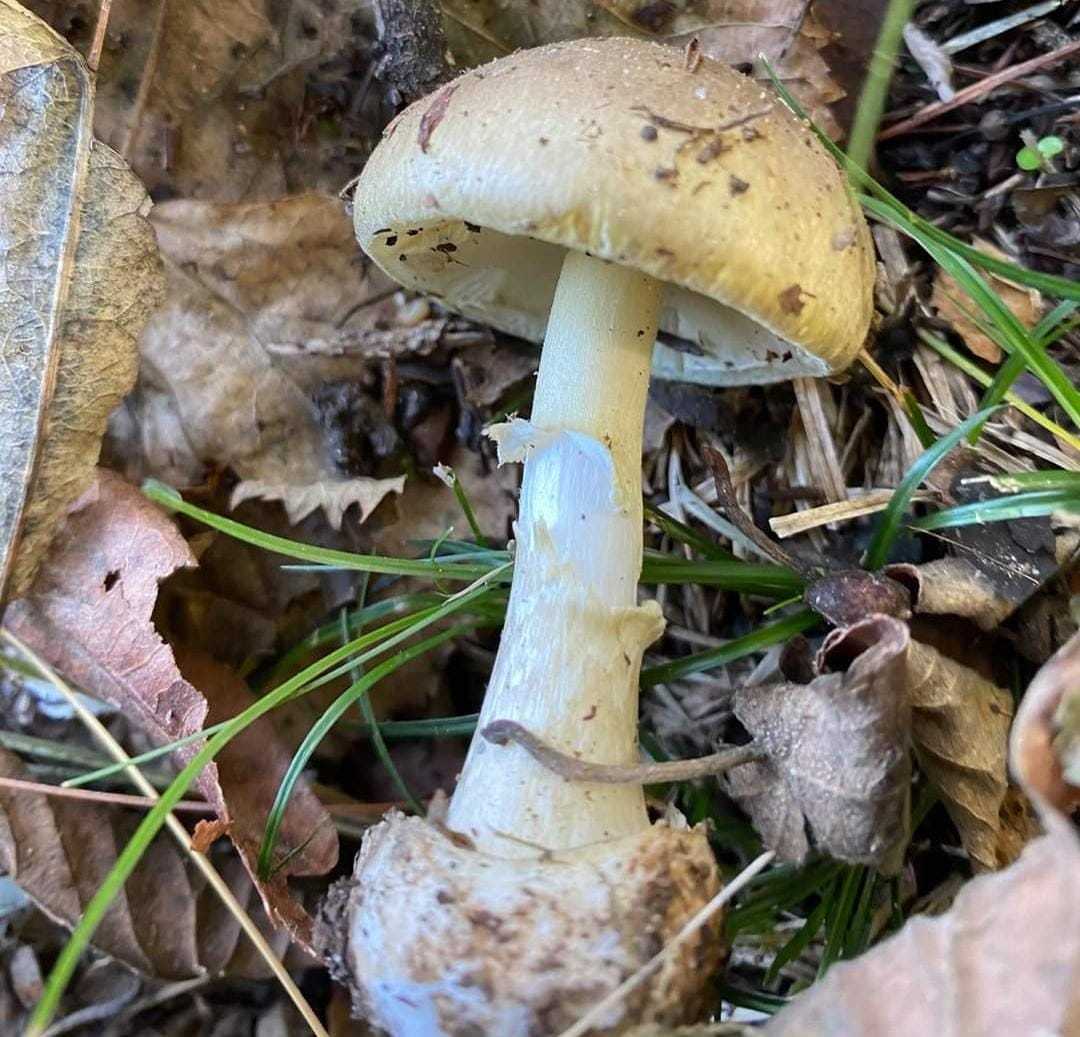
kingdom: Fungi
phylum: Basidiomycota
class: Agaricomycetes
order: Agaricales
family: Amanitaceae
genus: Amanita
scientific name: Amanita phalloides
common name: Death cap
